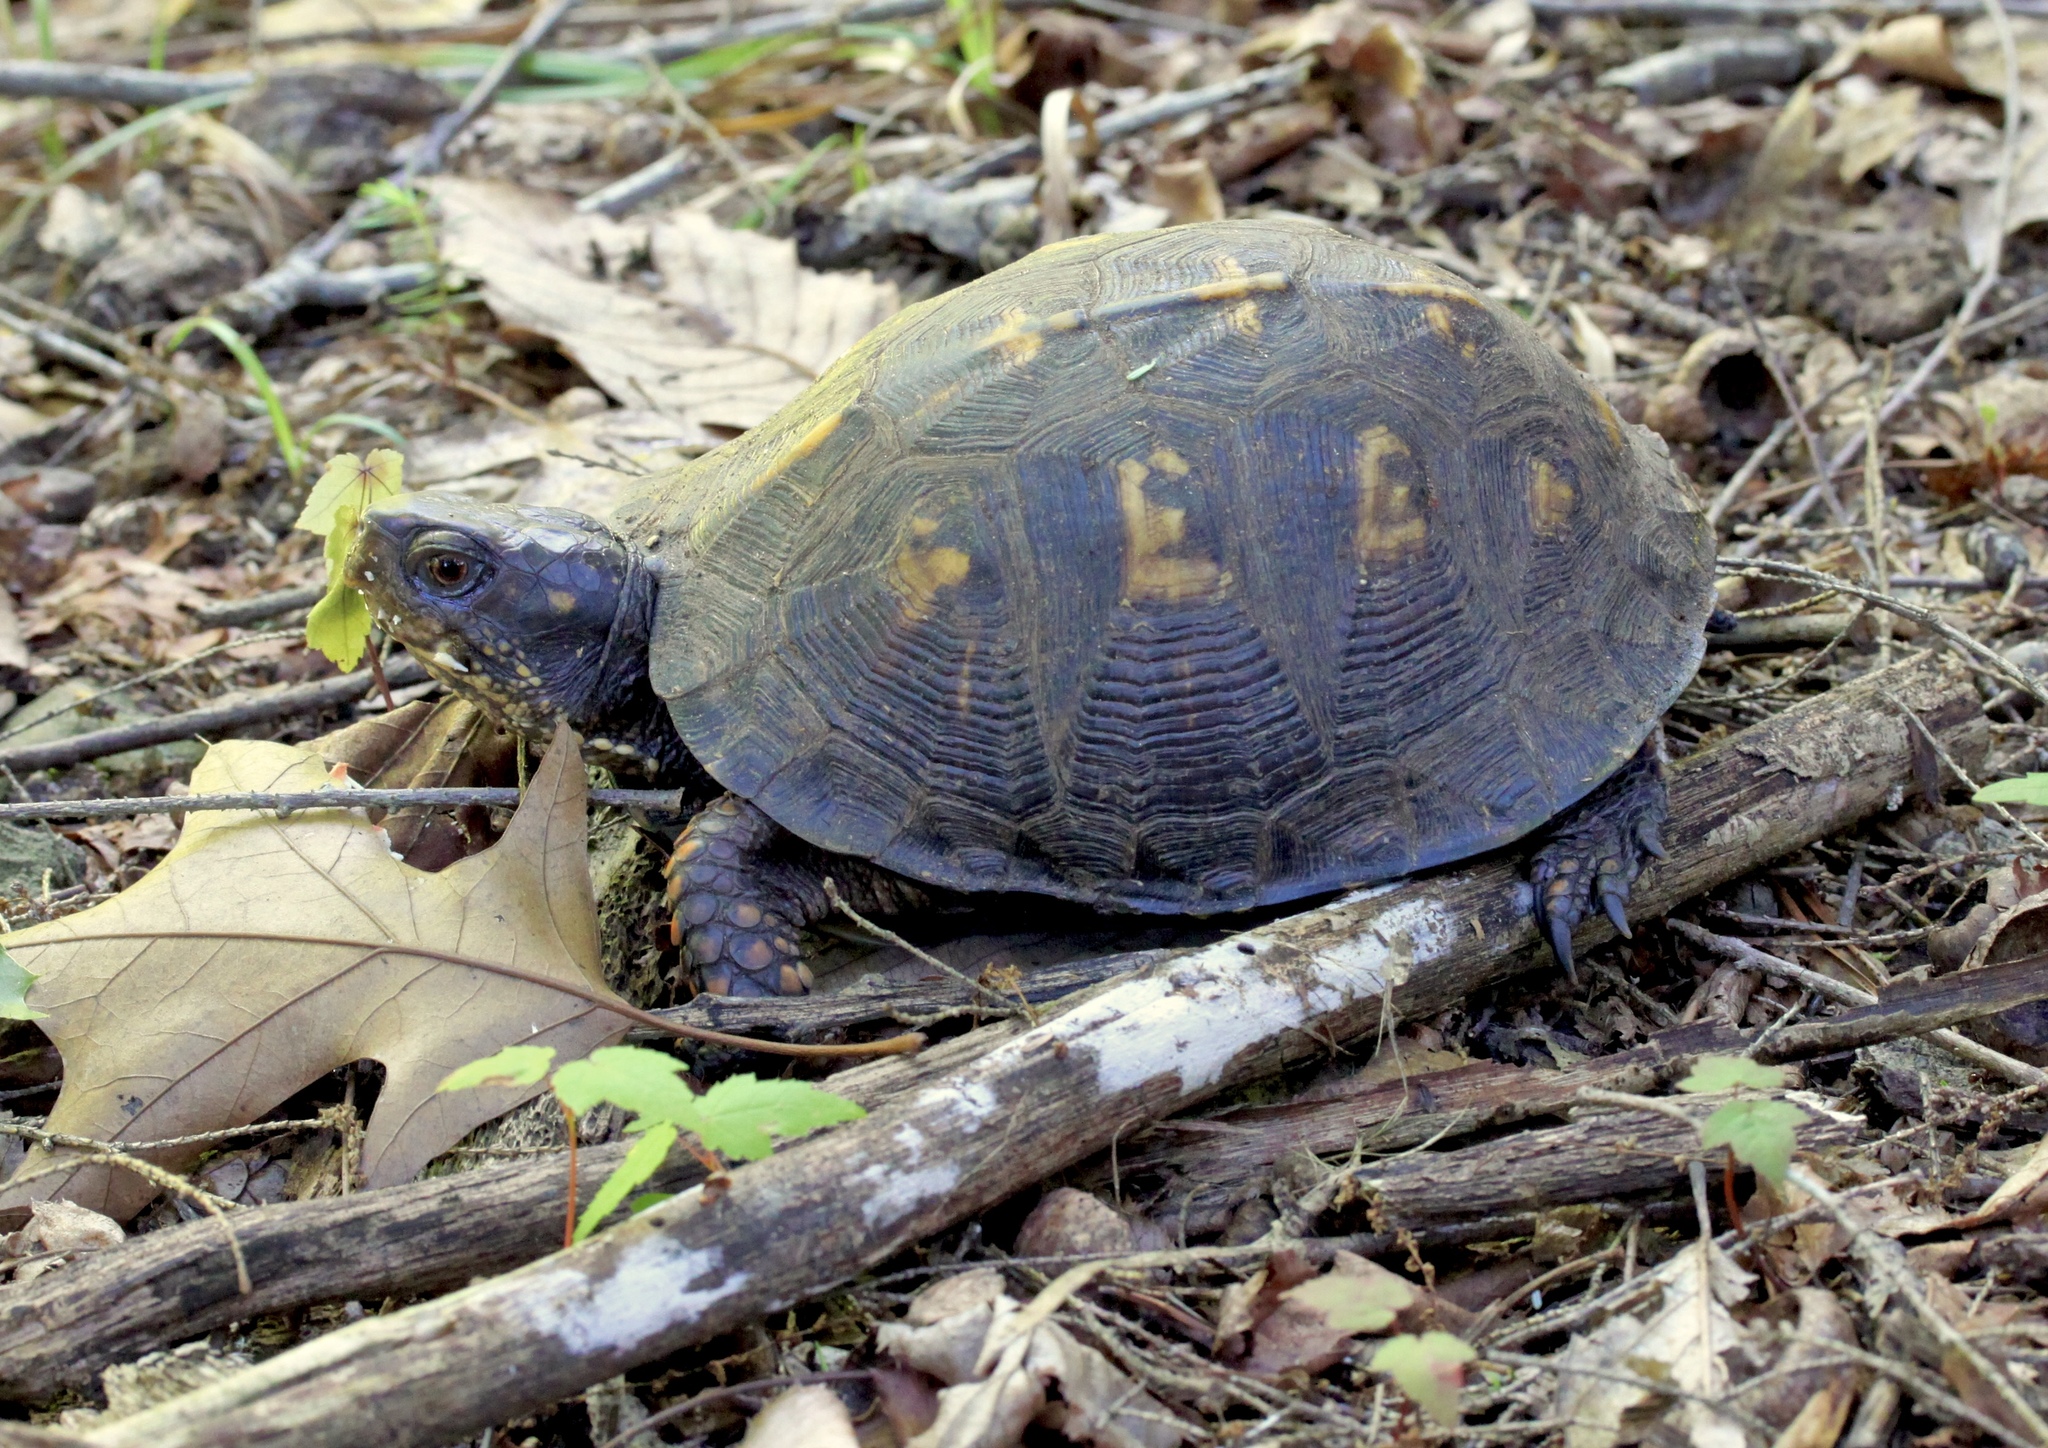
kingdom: Animalia
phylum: Chordata
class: Testudines
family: Emydidae
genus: Terrapene
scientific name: Terrapene carolina
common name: Common box turtle
